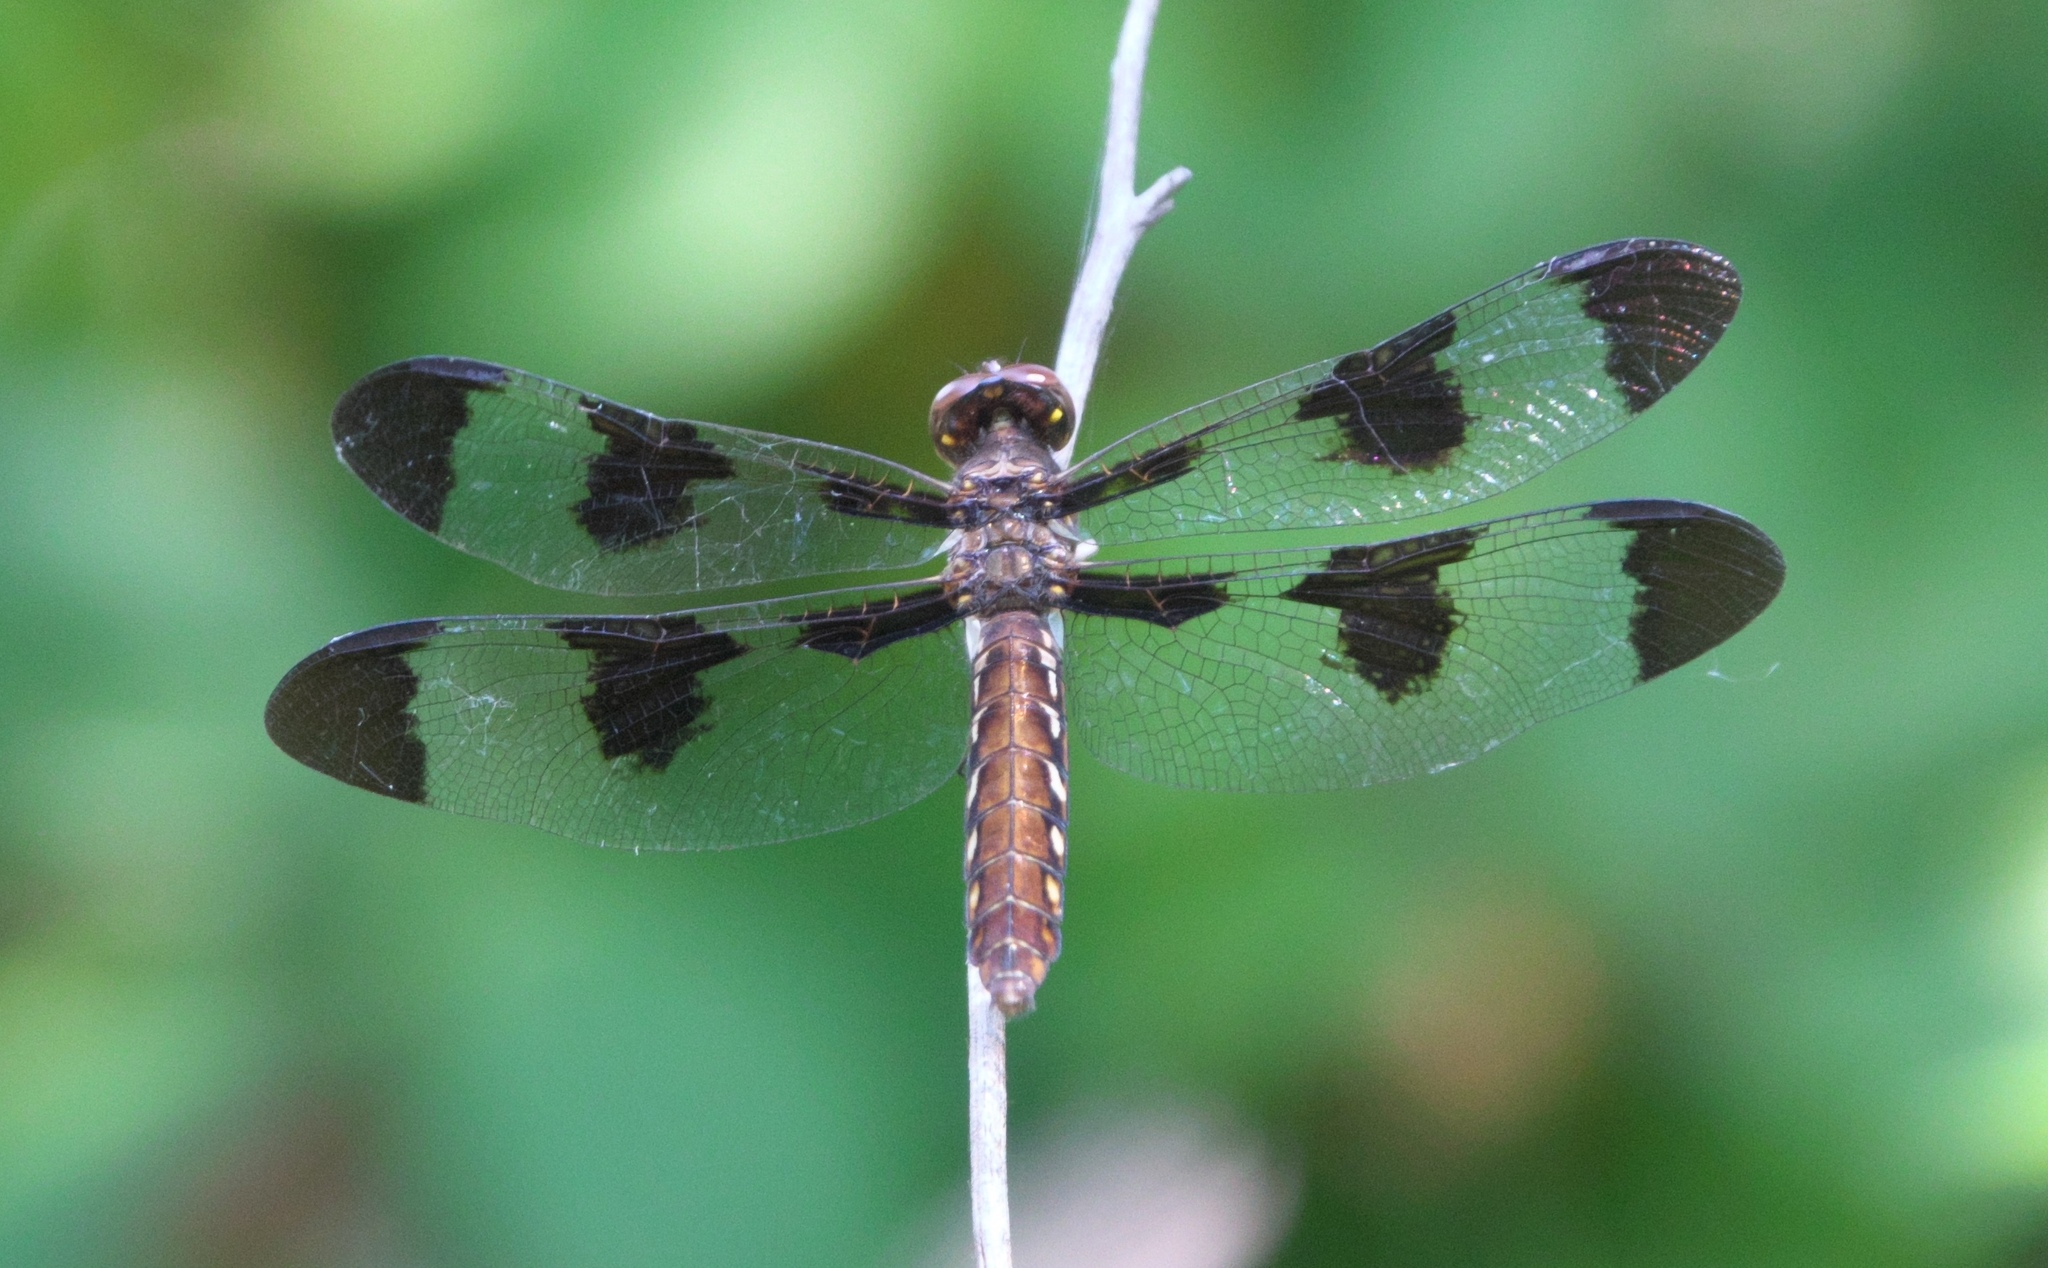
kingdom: Animalia
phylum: Arthropoda
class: Insecta
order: Odonata
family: Libellulidae
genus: Plathemis
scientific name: Plathemis lydia
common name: Common whitetail
